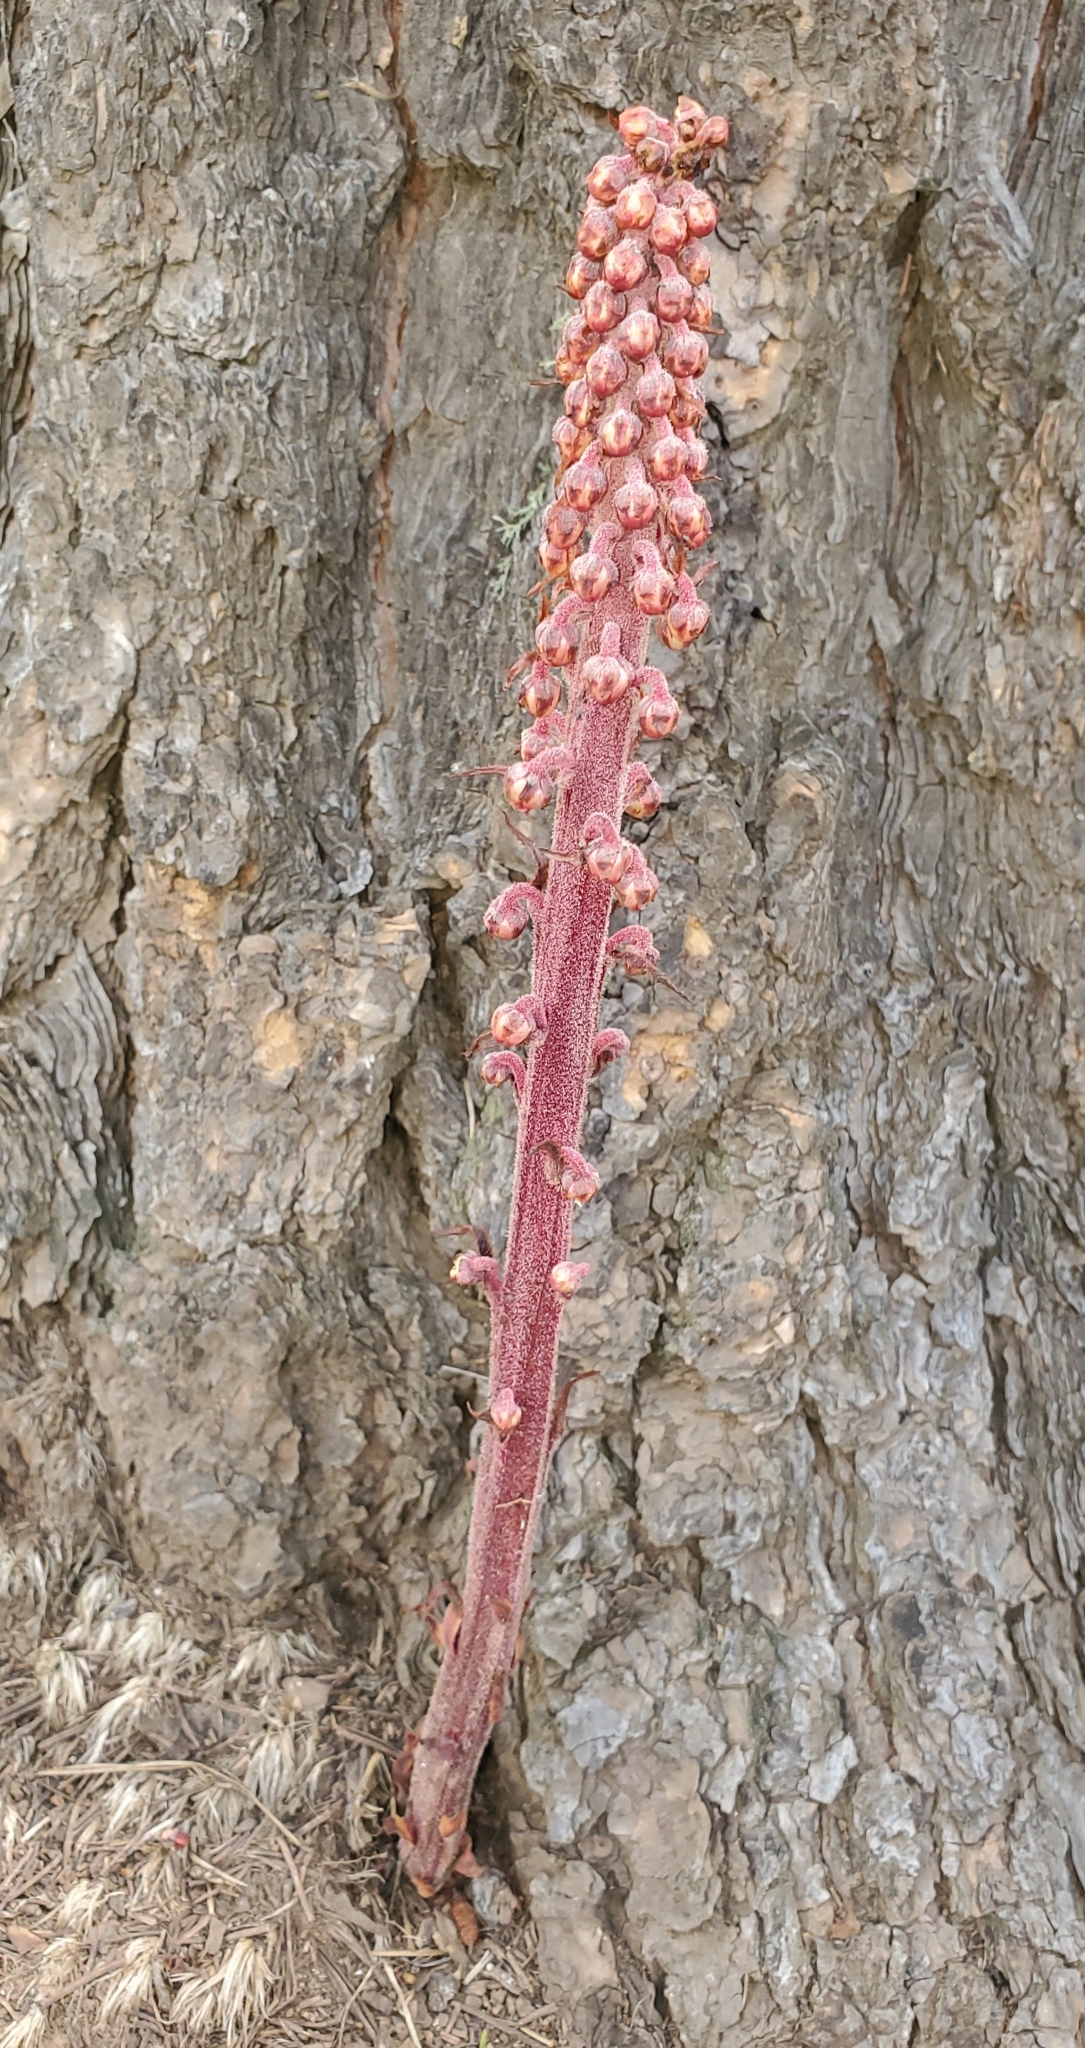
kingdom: Plantae
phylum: Tracheophyta
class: Magnoliopsida
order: Ericales
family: Ericaceae
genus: Pterospora
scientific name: Pterospora andromedea
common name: Giant bird's-nest
